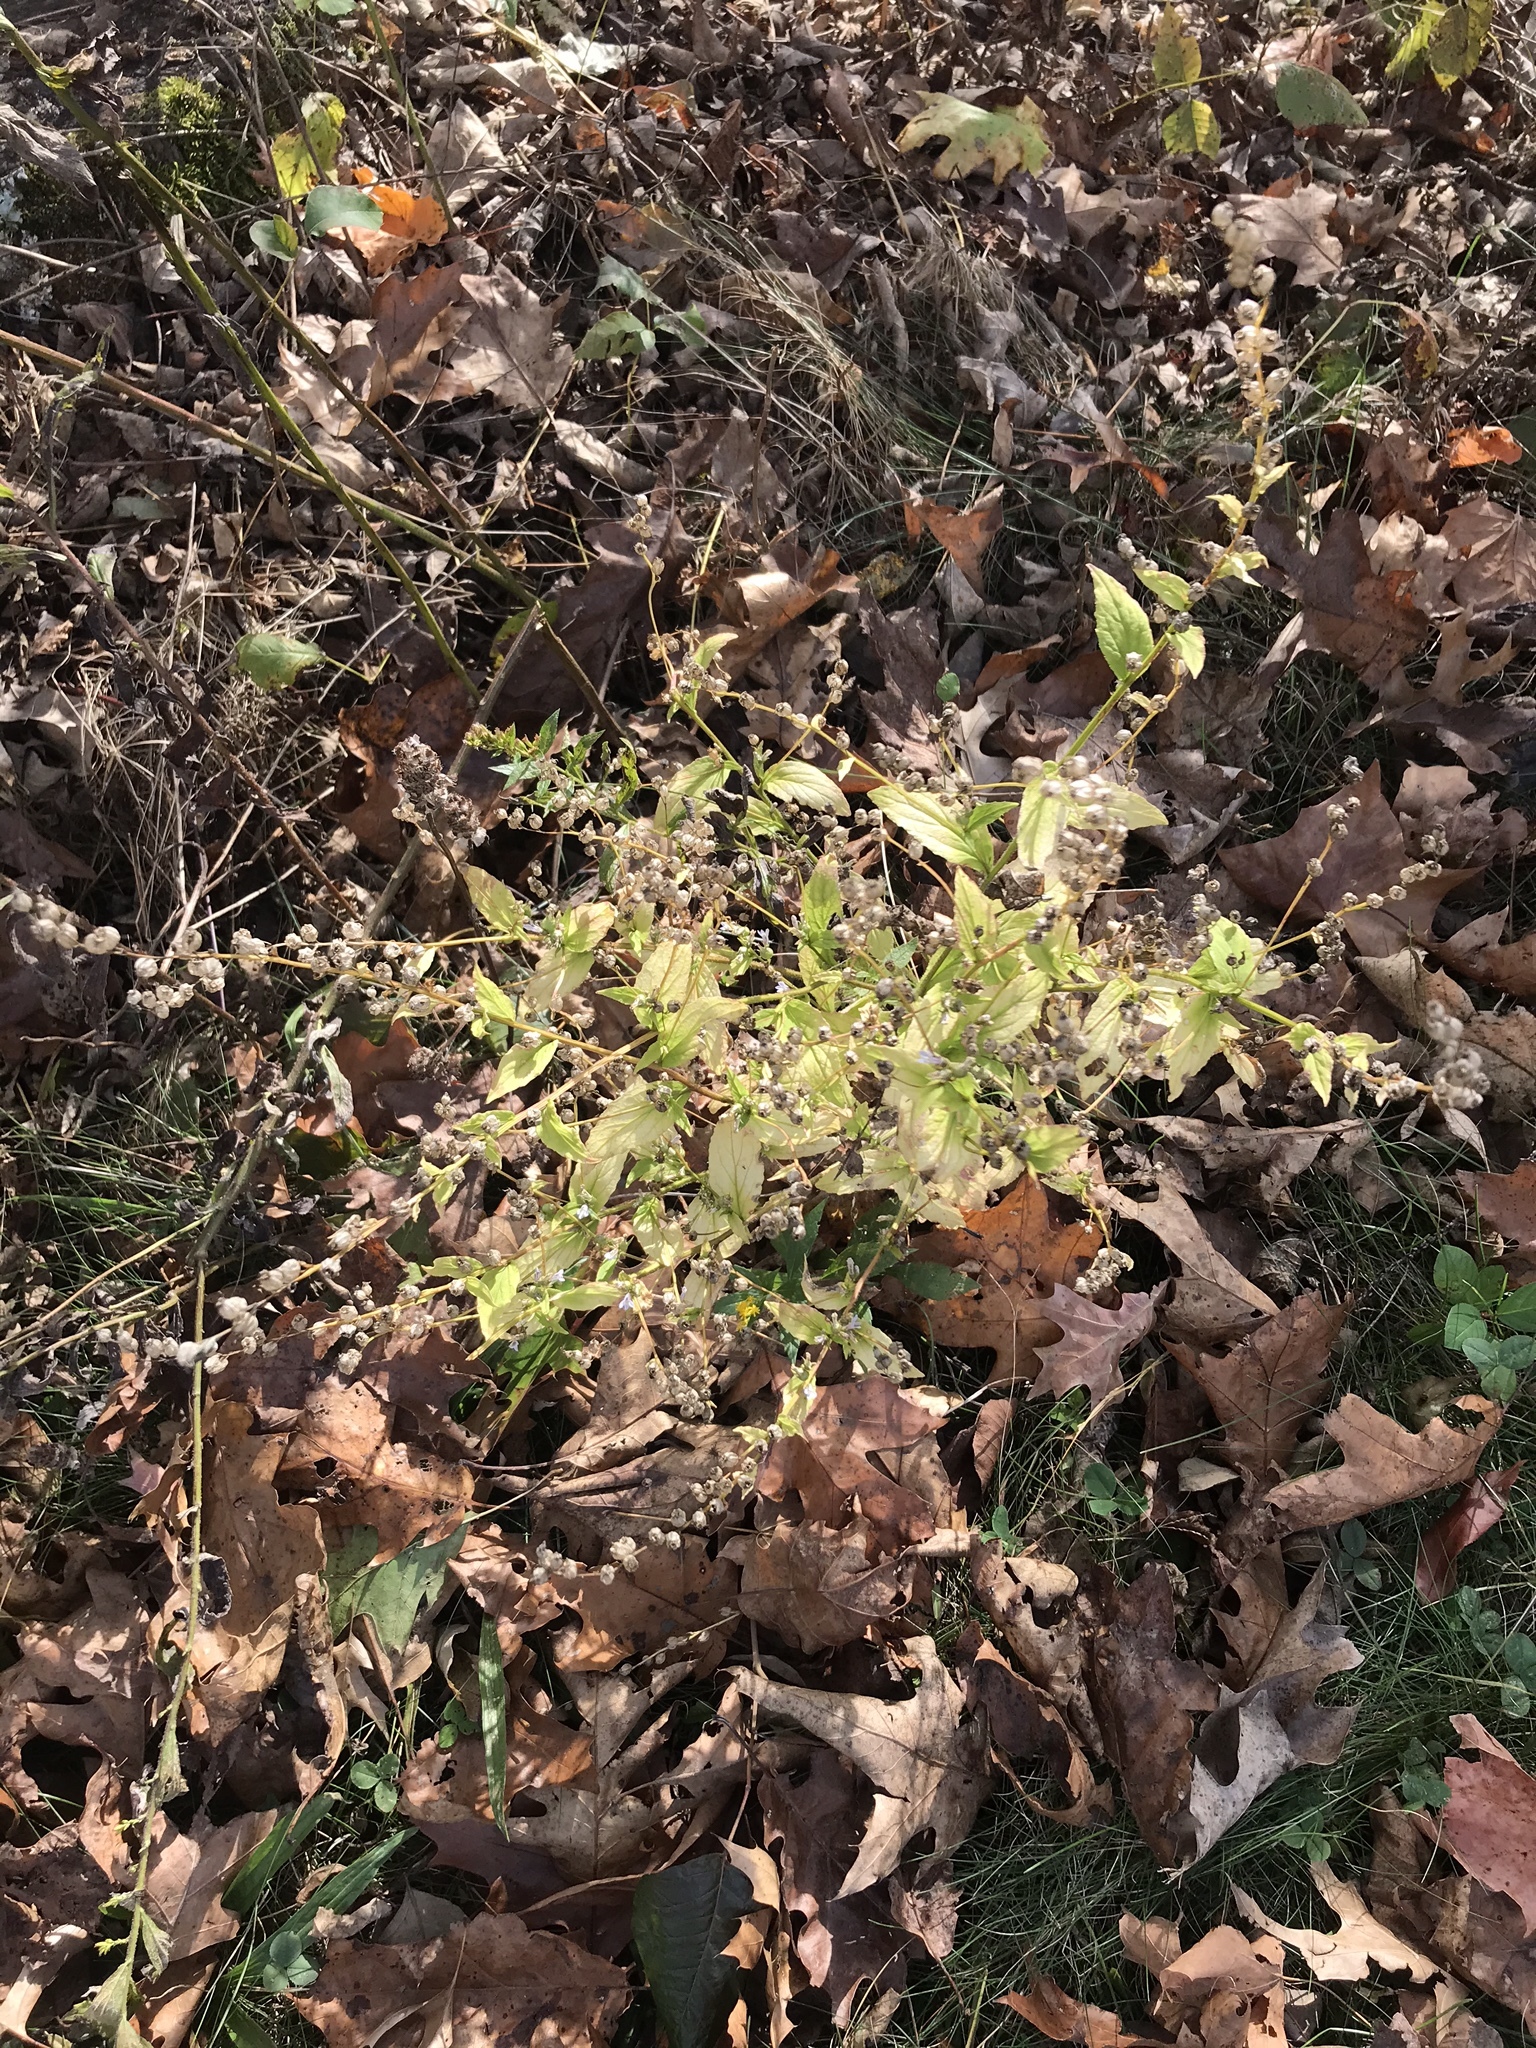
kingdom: Plantae
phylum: Tracheophyta
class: Magnoliopsida
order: Asterales
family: Campanulaceae
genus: Lobelia
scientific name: Lobelia inflata
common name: Indian tobacco
